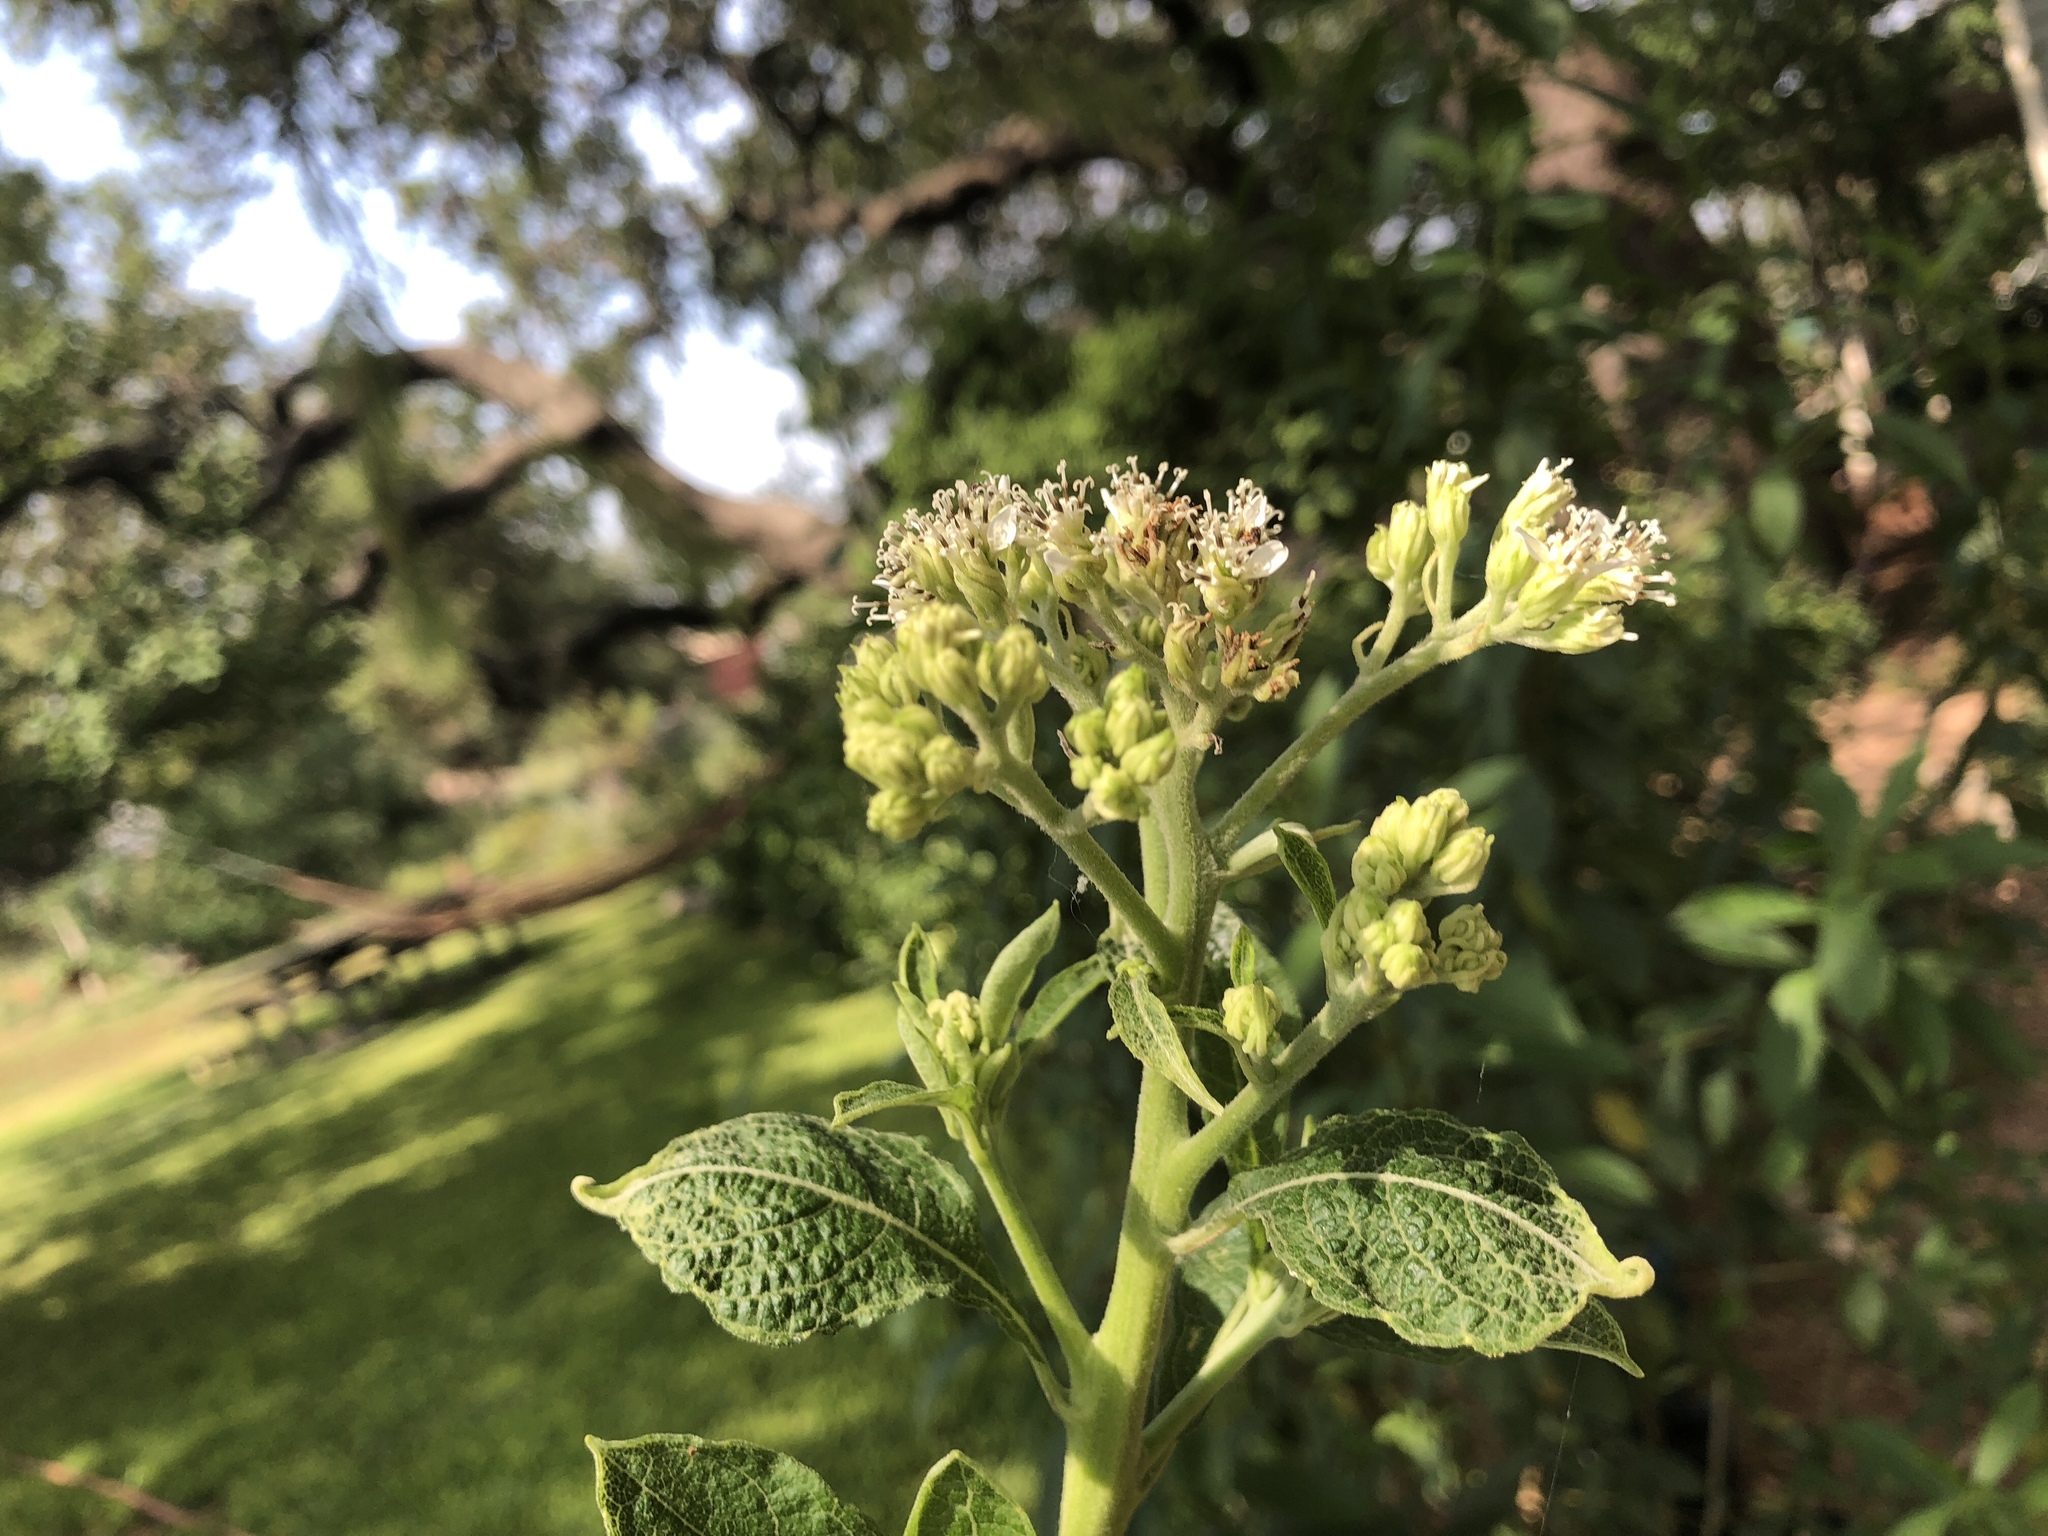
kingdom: Plantae
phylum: Tracheophyta
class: Magnoliopsida
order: Asterales
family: Asteraceae
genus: Verbesina
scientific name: Verbesina virginica
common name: Frostweed
